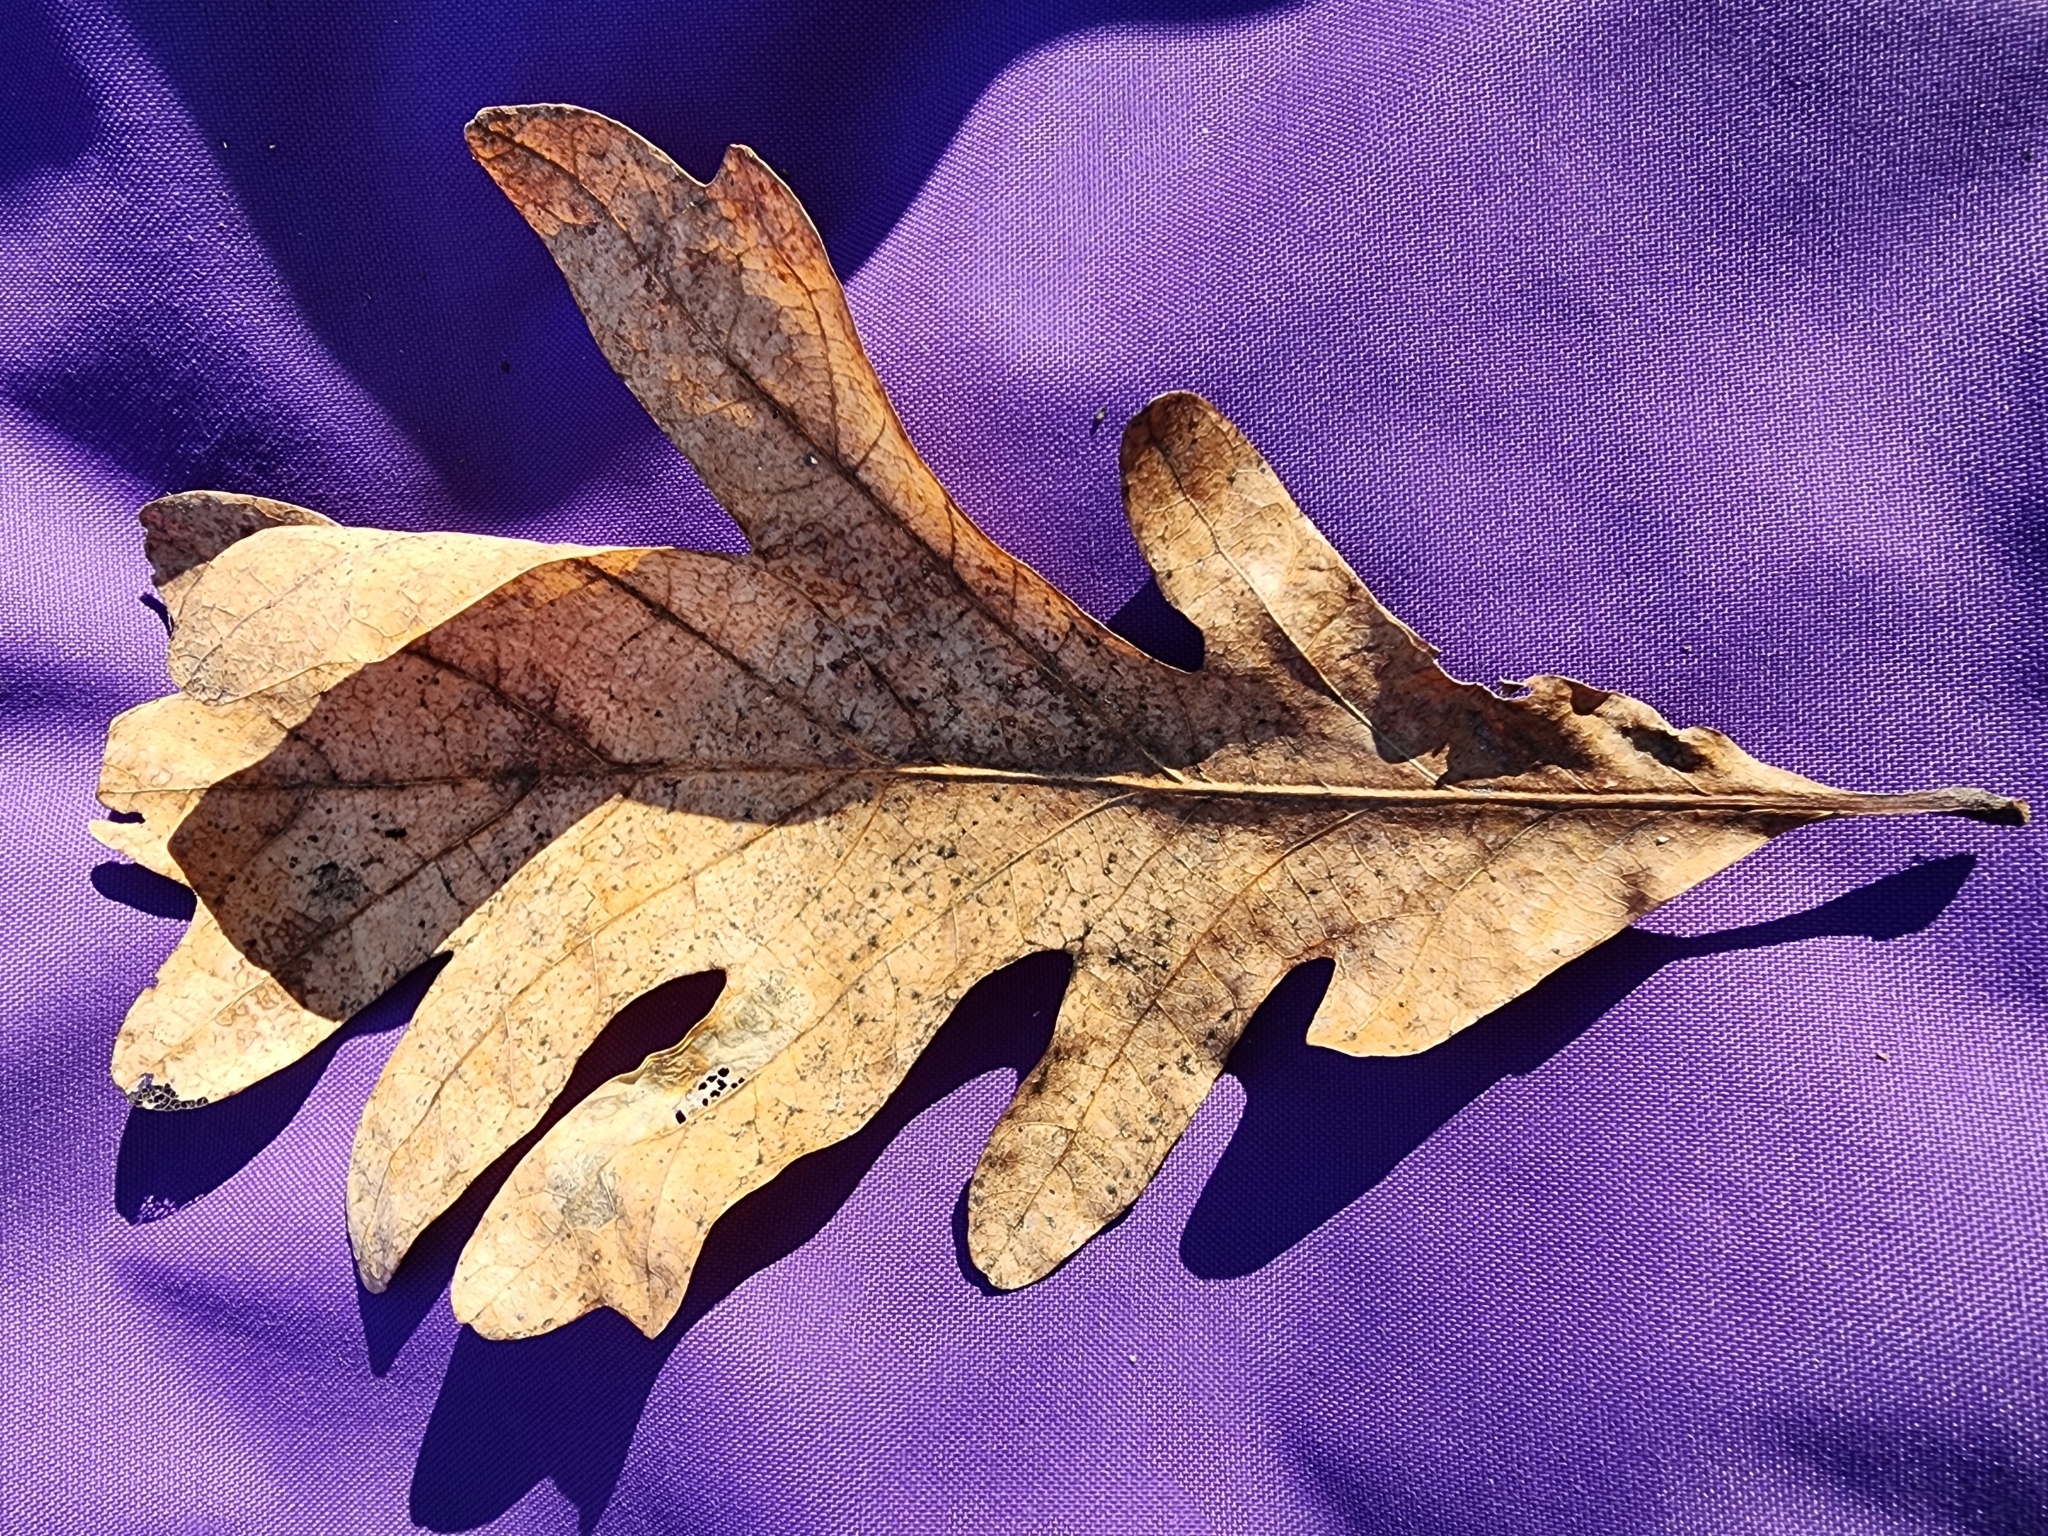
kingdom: Plantae
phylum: Tracheophyta
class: Magnoliopsida
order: Fagales
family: Fagaceae
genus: Quercus
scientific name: Quercus alba
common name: White oak
